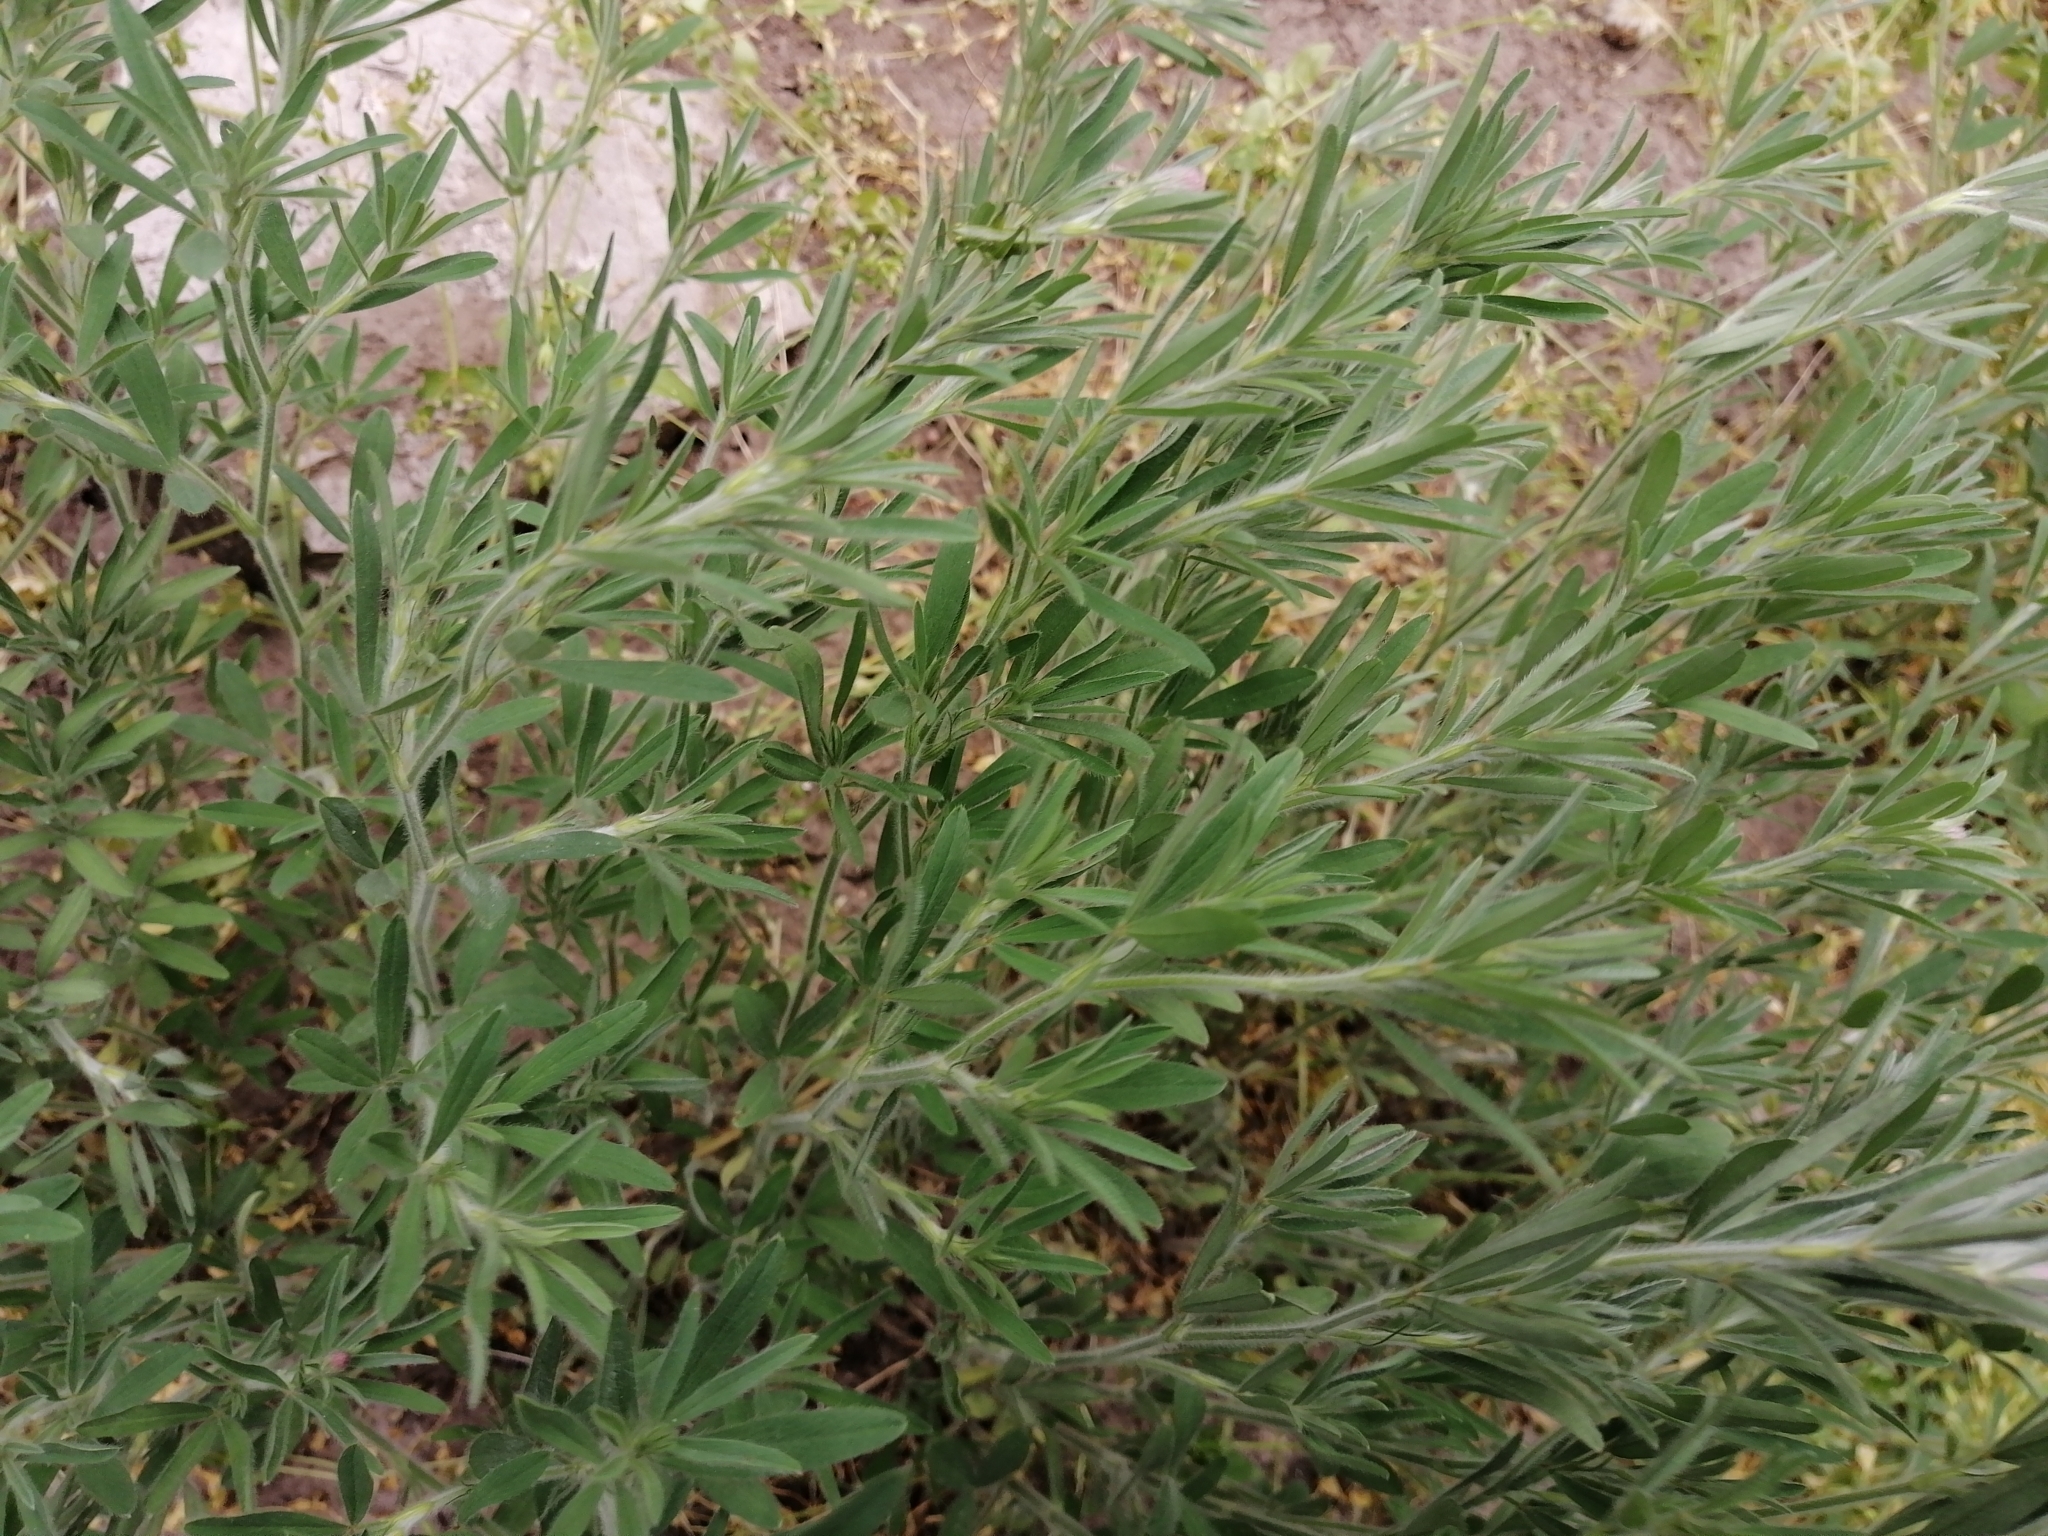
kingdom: Plantae
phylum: Tracheophyta
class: Magnoliopsida
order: Fabales
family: Fabaceae
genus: Trifolium
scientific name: Trifolium arvense
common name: Hare's-foot clover
